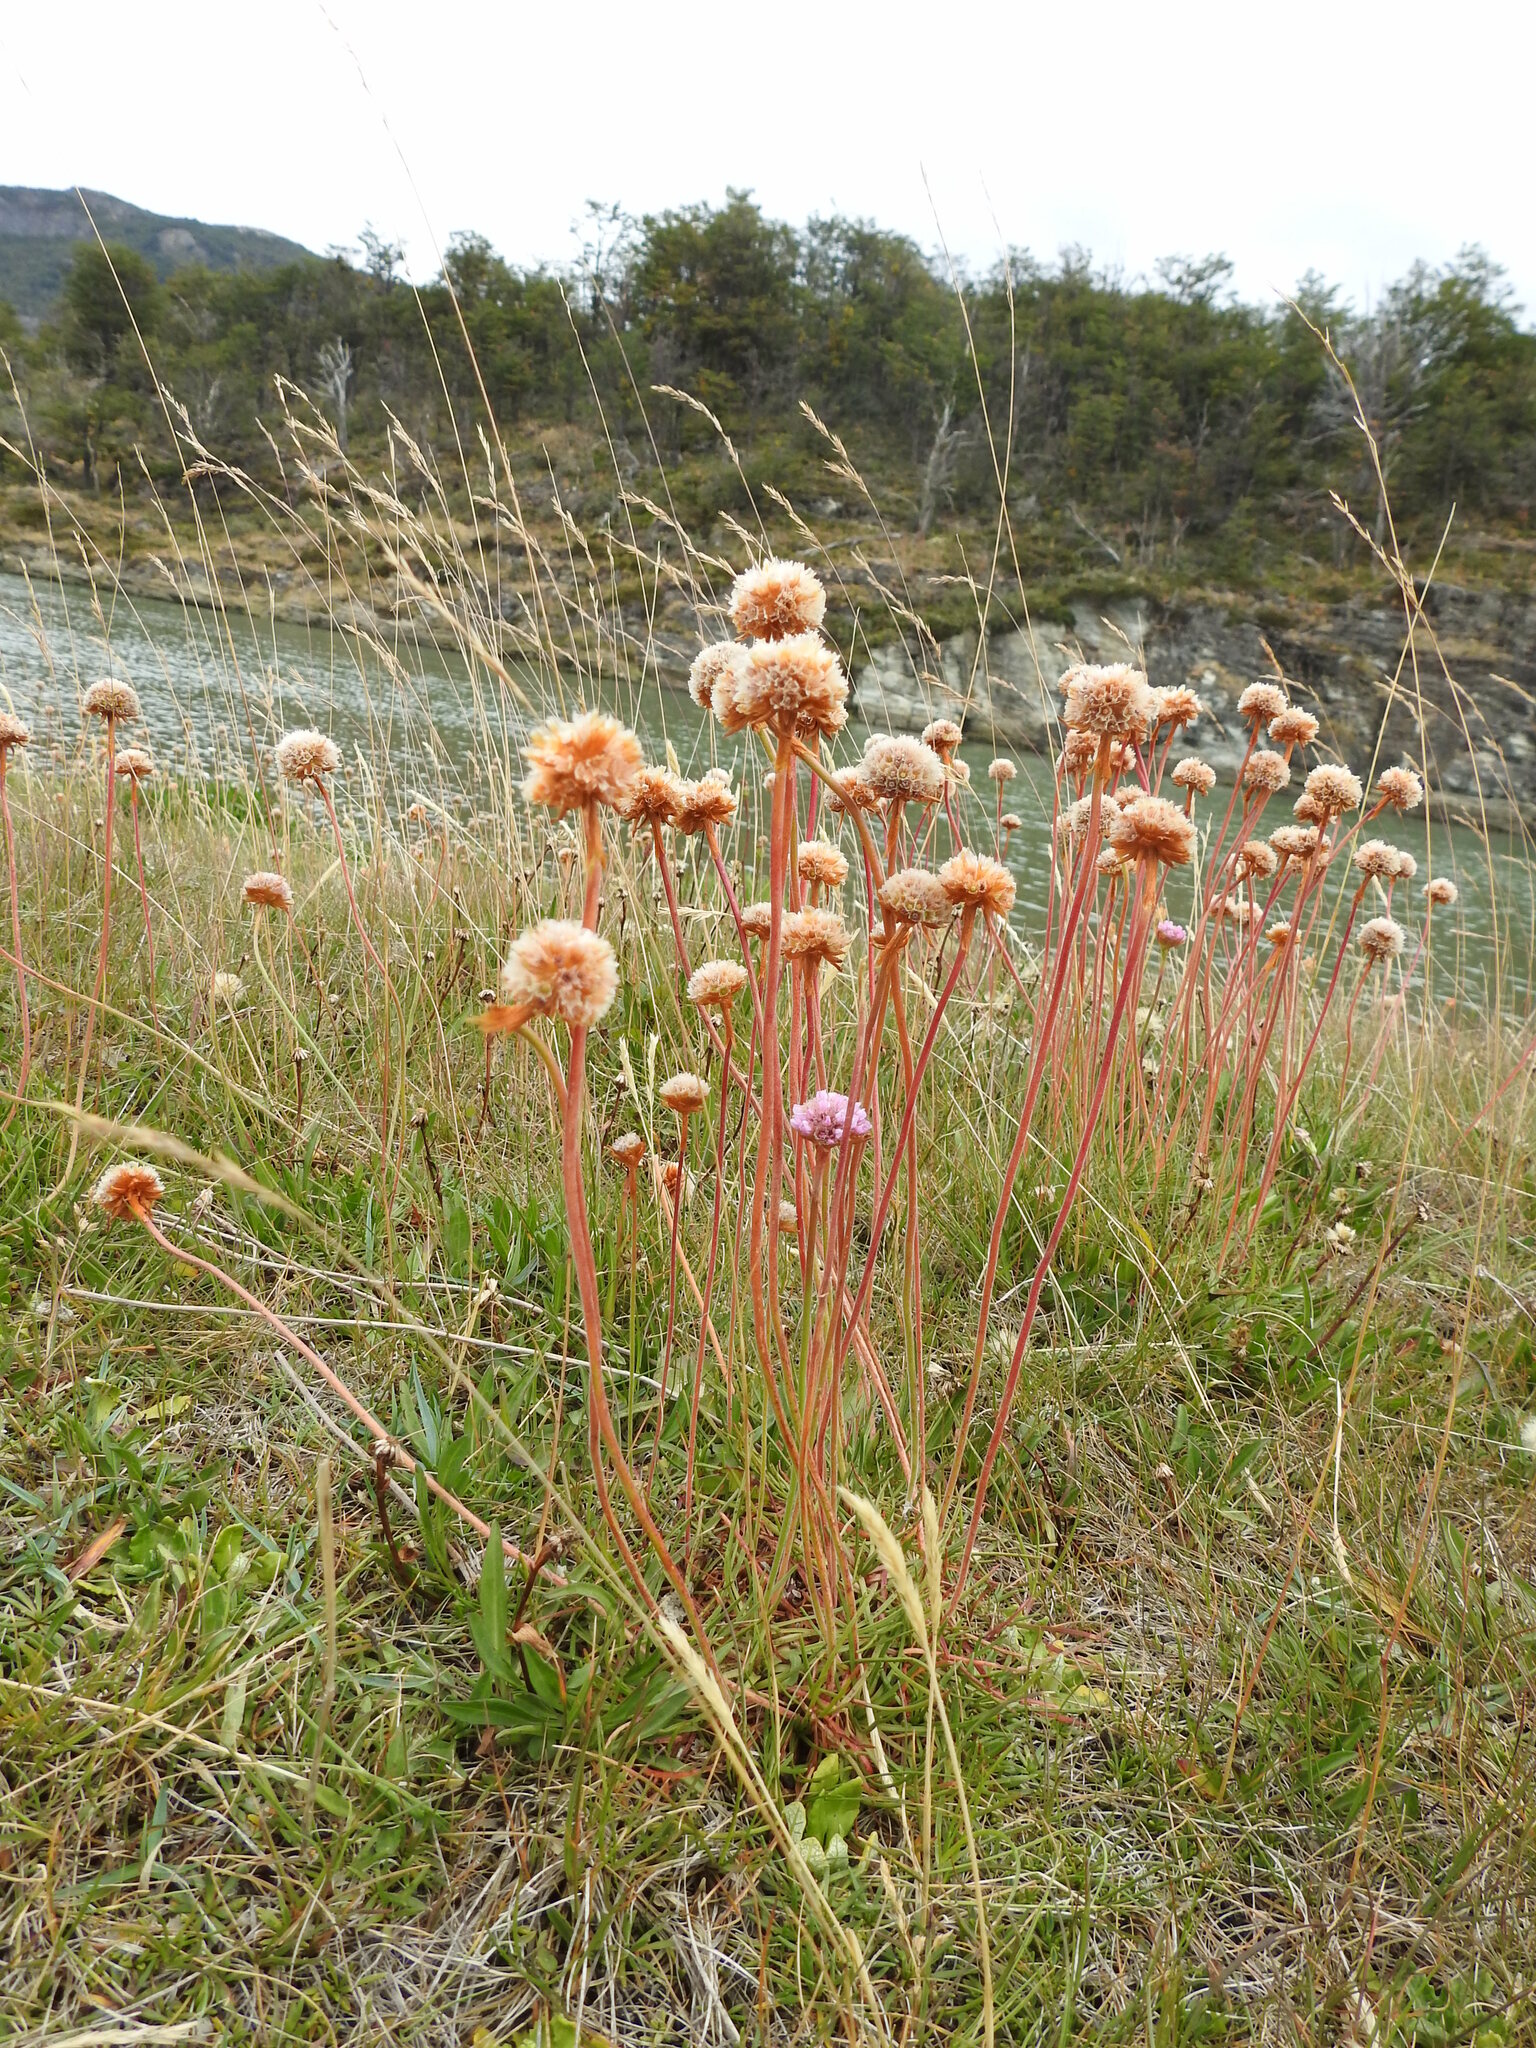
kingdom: Plantae
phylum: Tracheophyta
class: Magnoliopsida
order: Caryophyllales
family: Plumbaginaceae
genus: Armeria
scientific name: Armeria curvifolia
